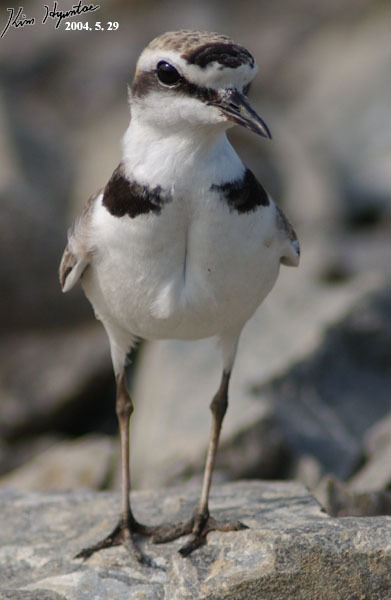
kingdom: Animalia
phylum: Chordata
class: Aves
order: Charadriiformes
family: Charadriidae
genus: Charadrius
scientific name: Charadrius alexandrinus
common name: Kentish plover
